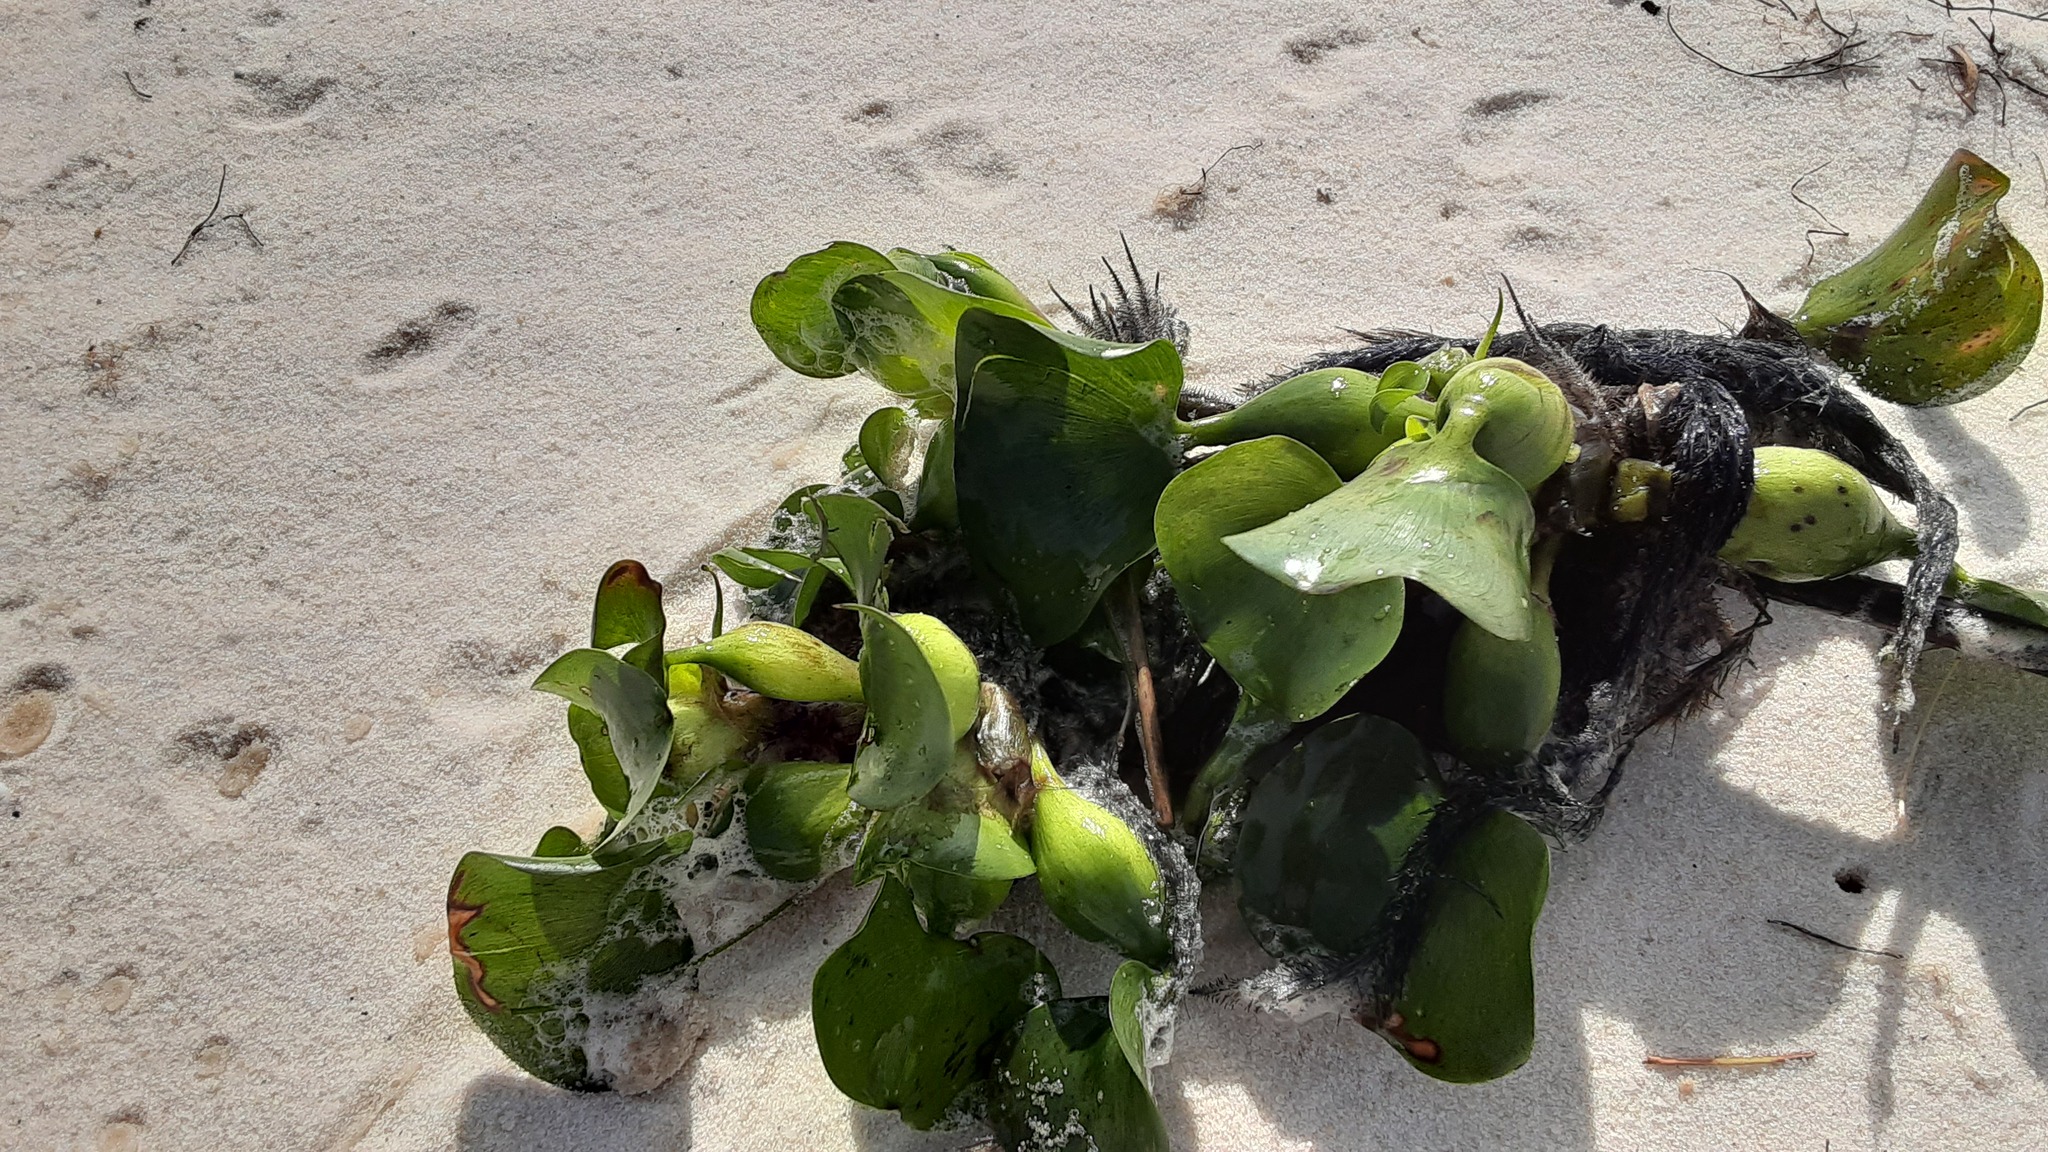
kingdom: Plantae
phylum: Tracheophyta
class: Liliopsida
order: Commelinales
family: Pontederiaceae
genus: Pontederia
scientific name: Pontederia crassipes
